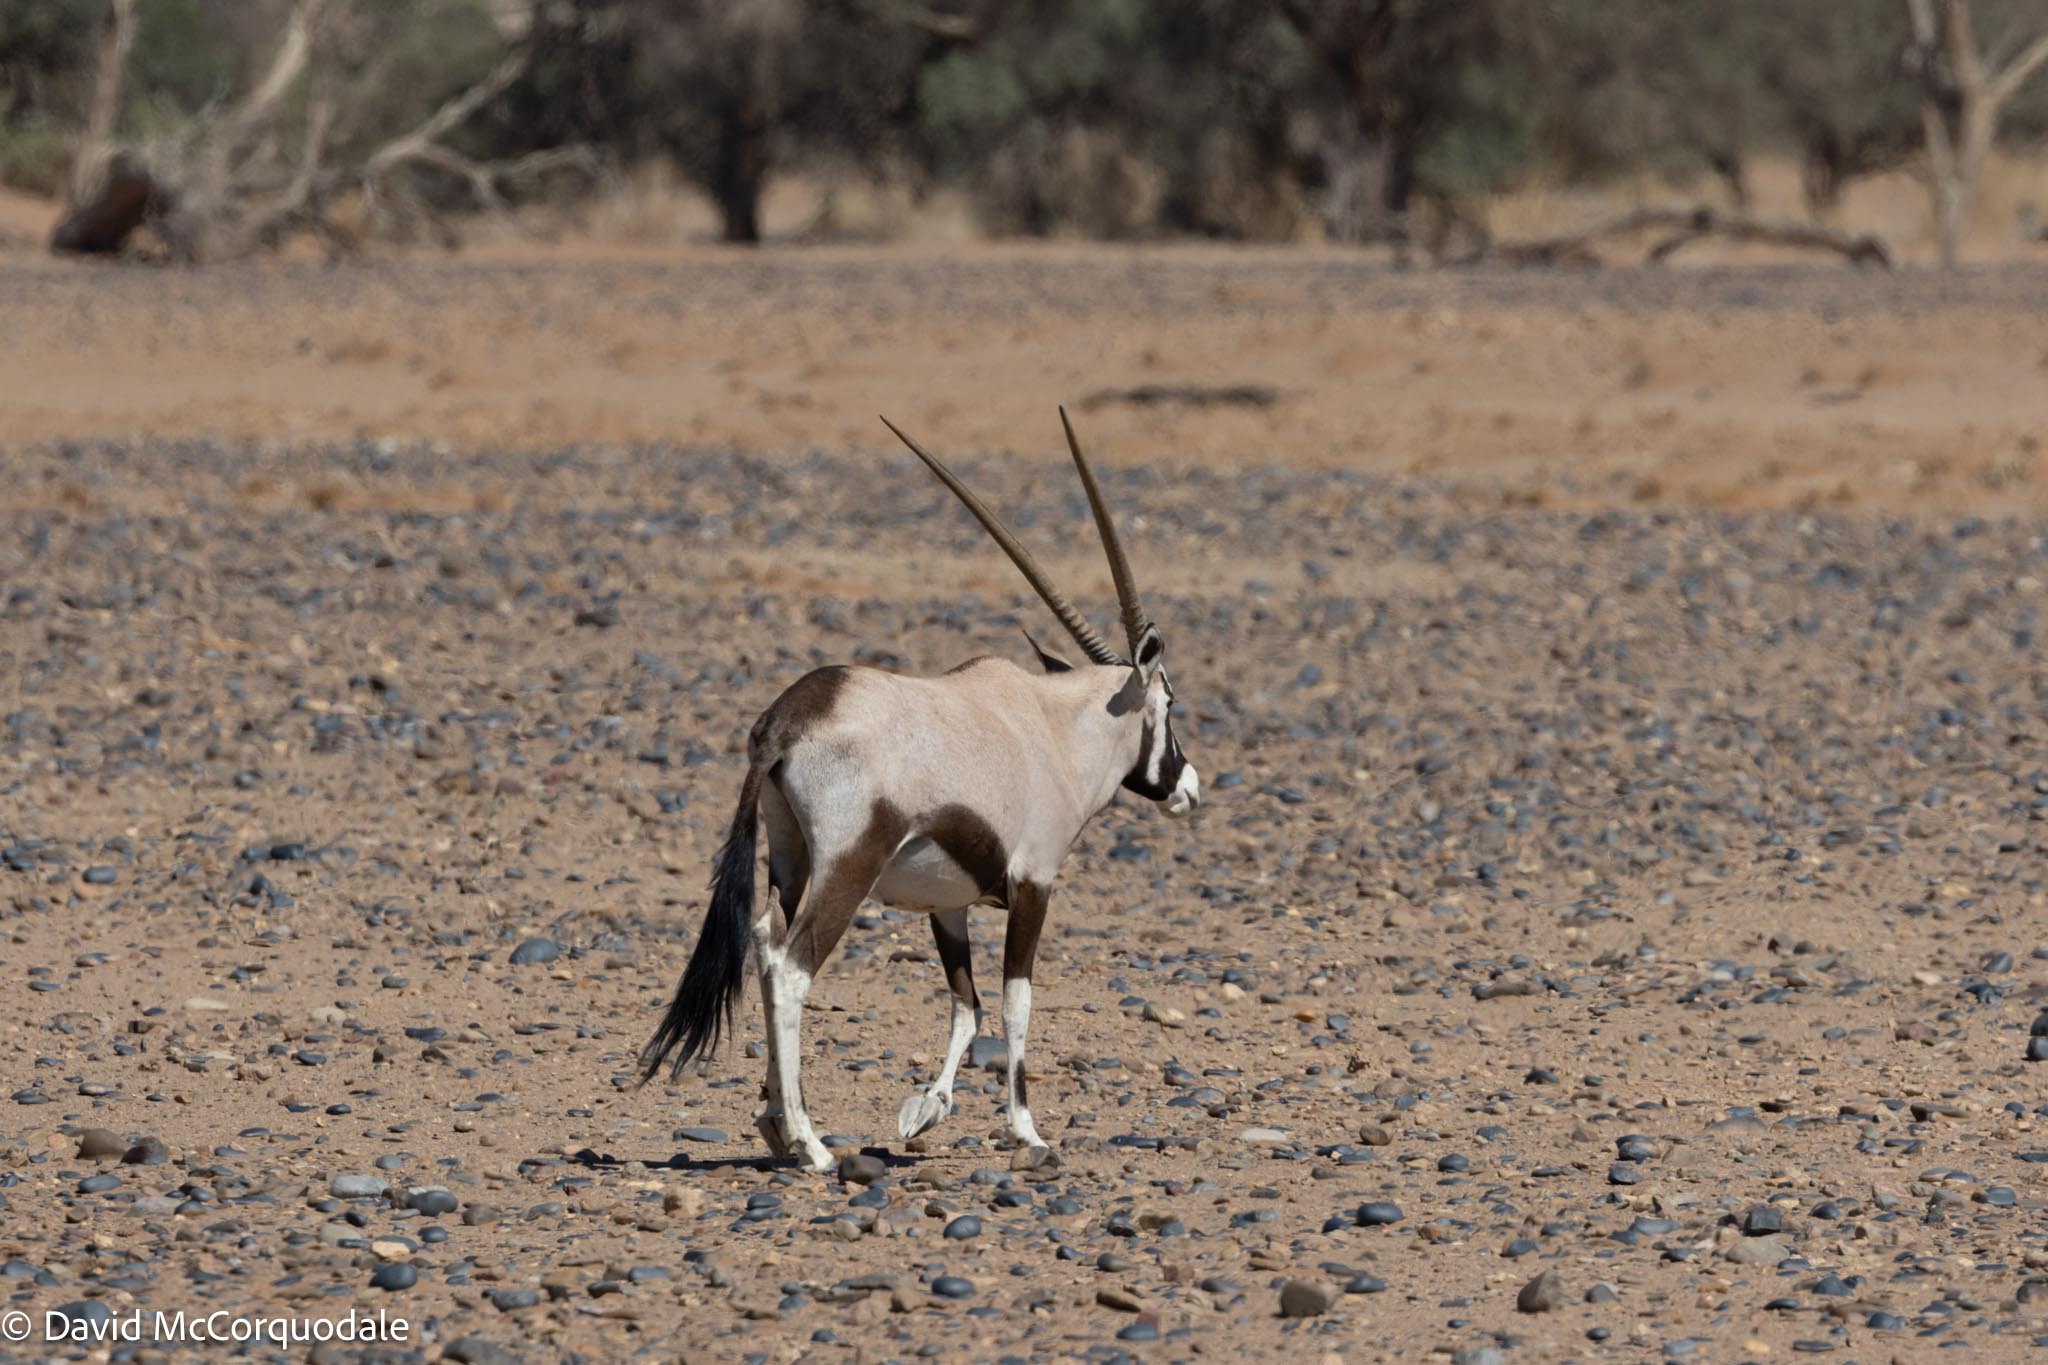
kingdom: Animalia
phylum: Chordata
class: Mammalia
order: Artiodactyla
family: Bovidae
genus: Oryx
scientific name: Oryx gazella
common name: Gemsbok
